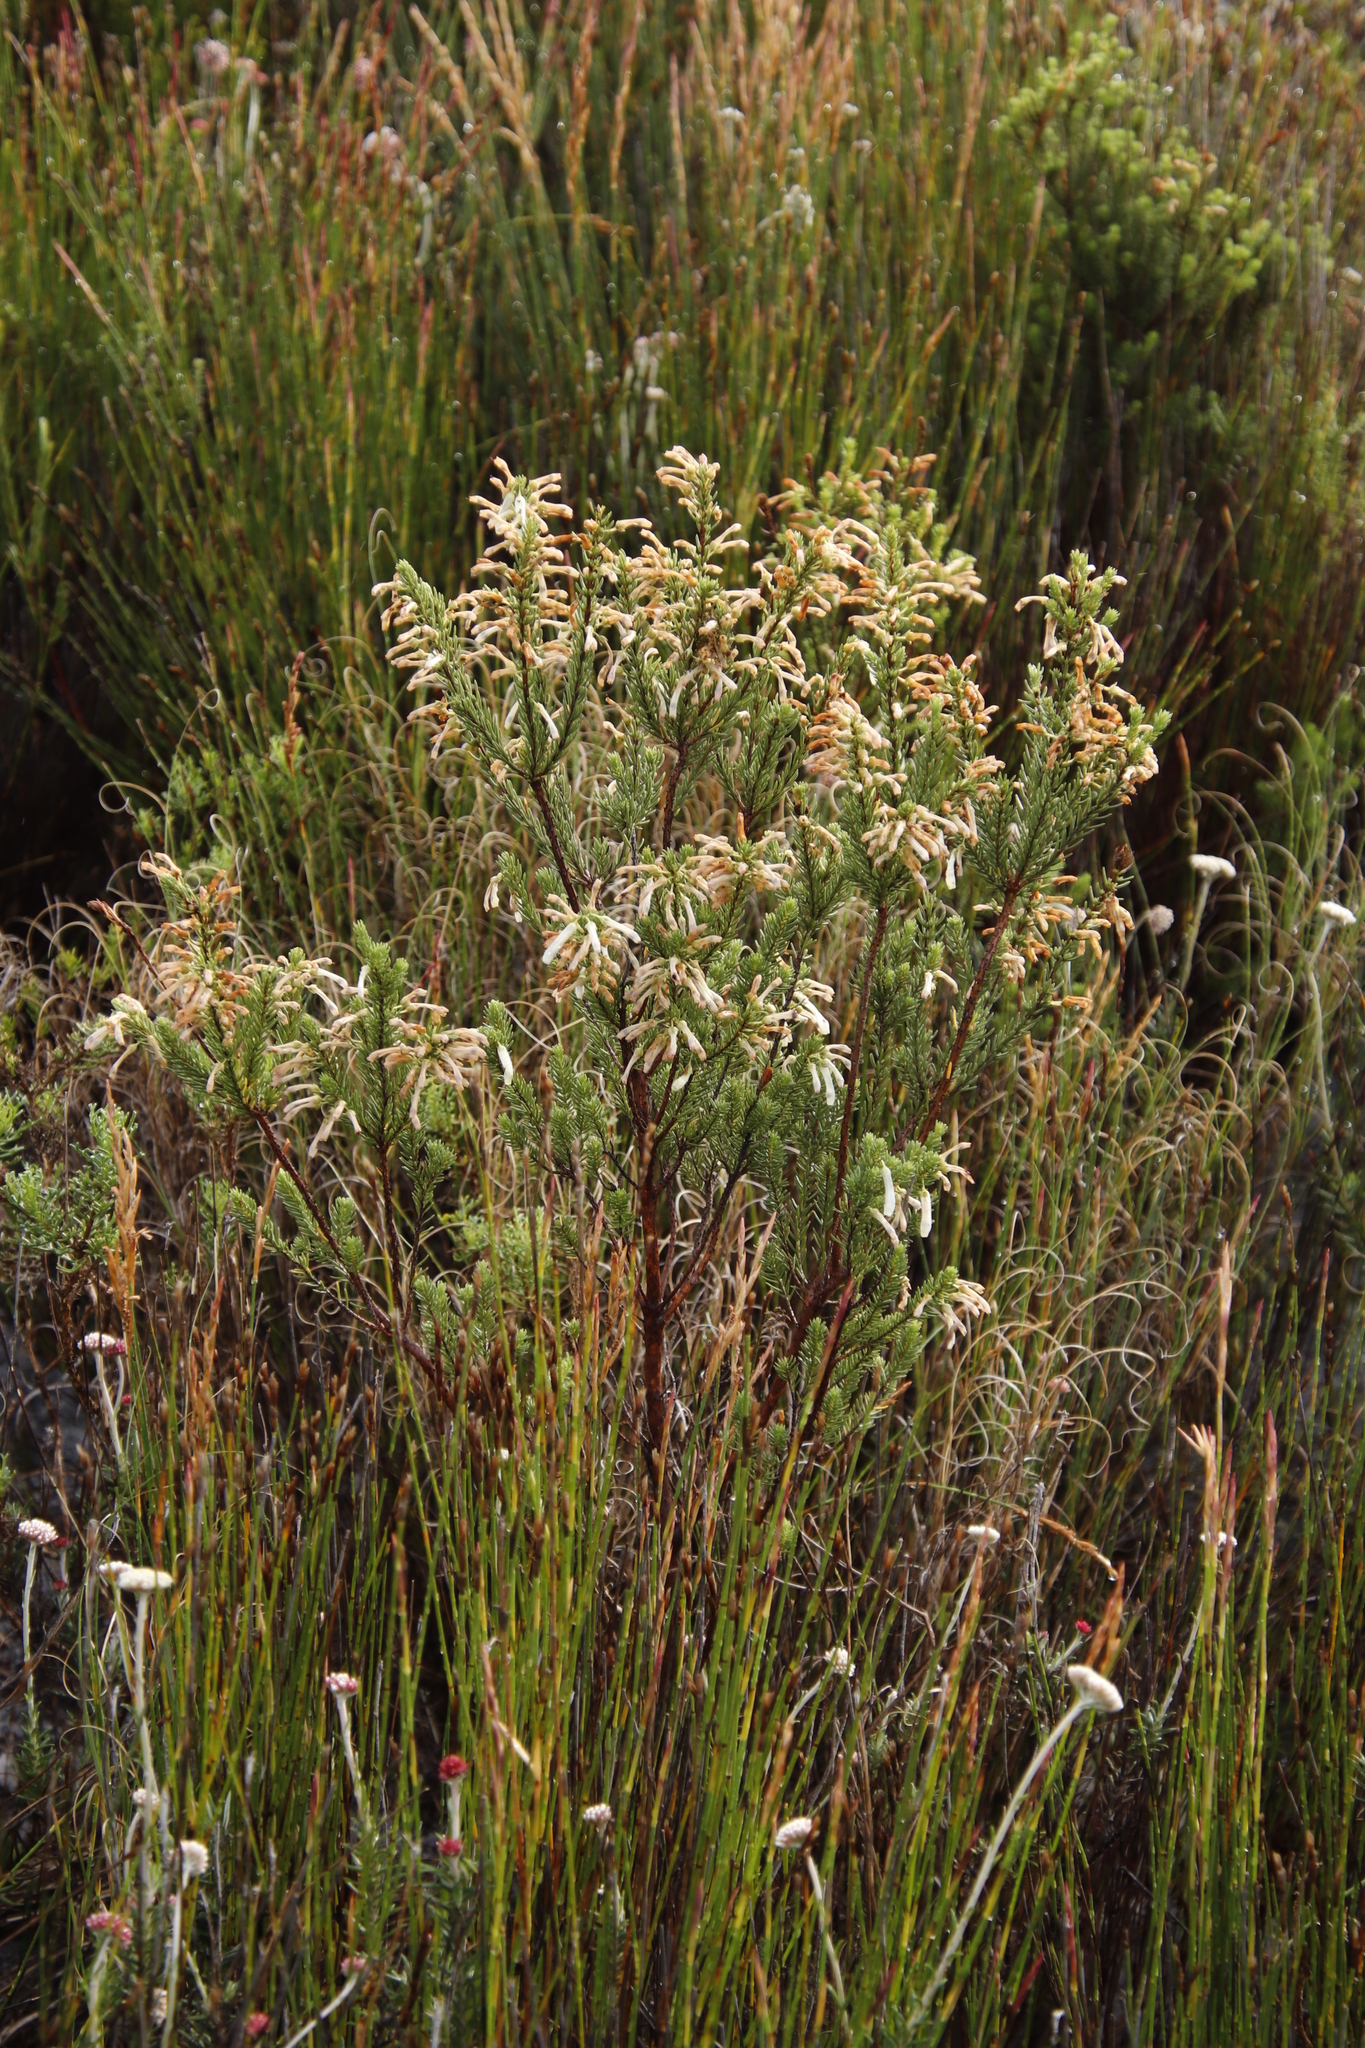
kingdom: Plantae
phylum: Tracheophyta
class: Magnoliopsida
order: Ericales
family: Ericaceae
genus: Erica
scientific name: Erica mammosa
